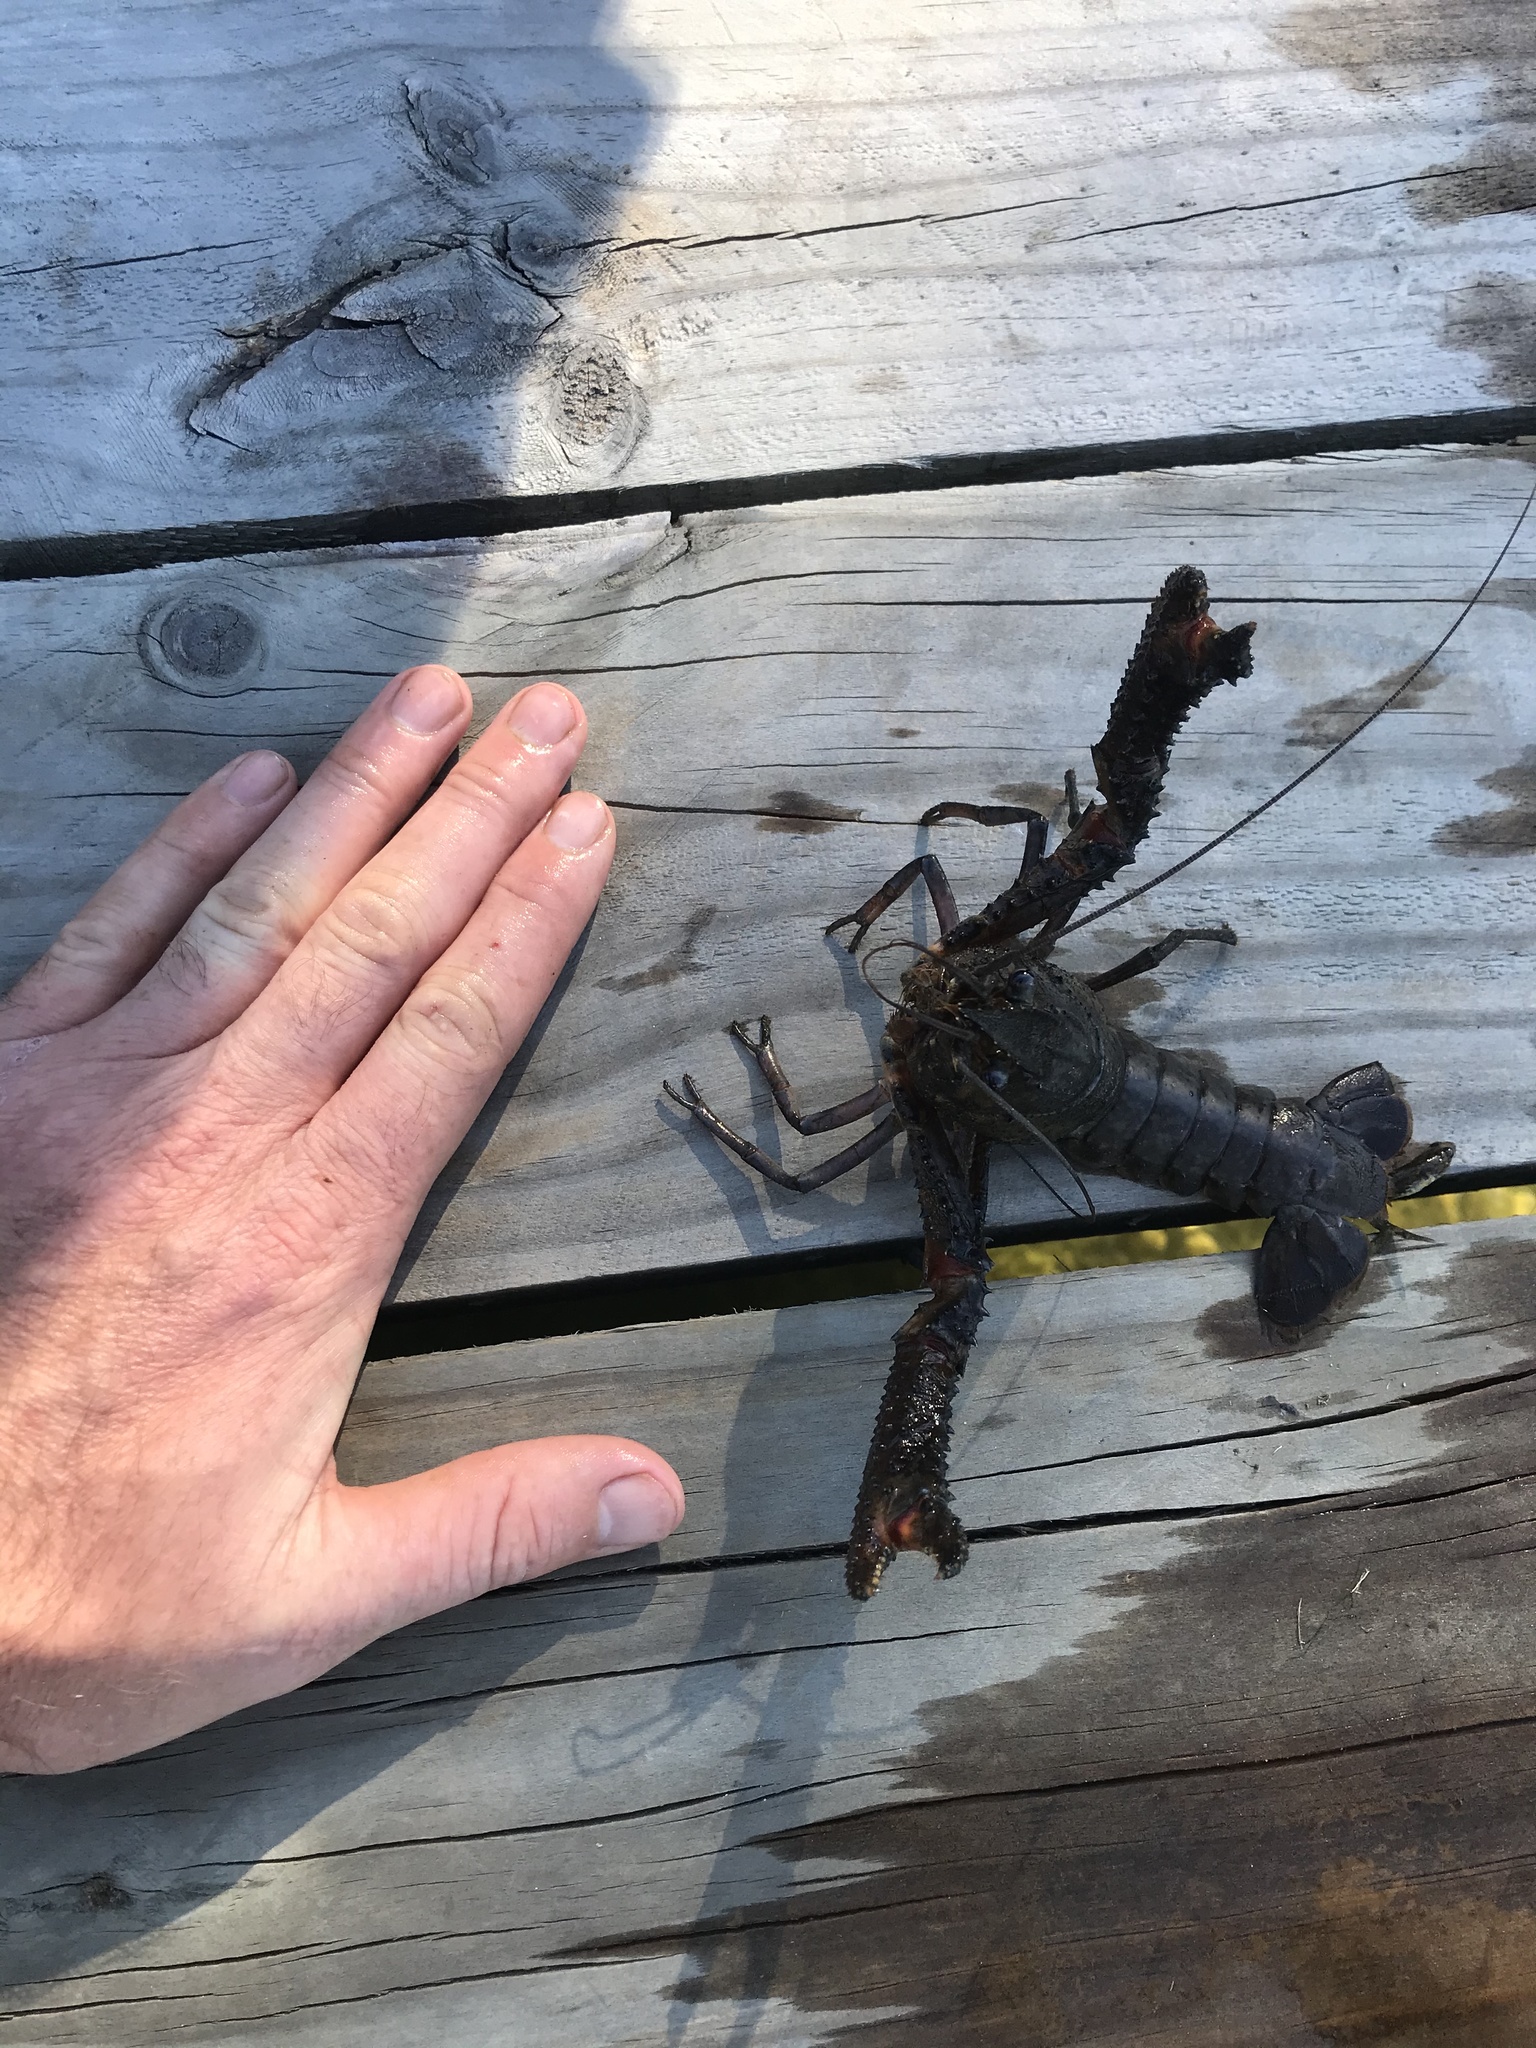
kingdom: Animalia
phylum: Arthropoda
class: Malacostraca
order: Decapoda
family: Parastacidae
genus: Paranephrops
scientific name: Paranephrops planifrons
